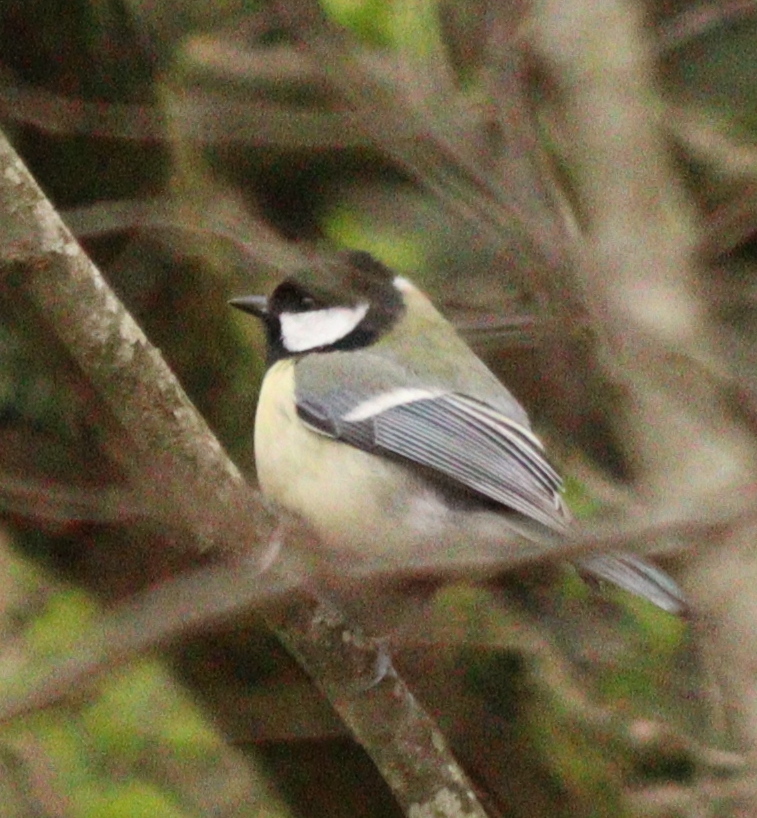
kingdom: Animalia
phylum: Chordata
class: Aves
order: Passeriformes
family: Paridae
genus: Parus
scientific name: Parus major
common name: Great tit
